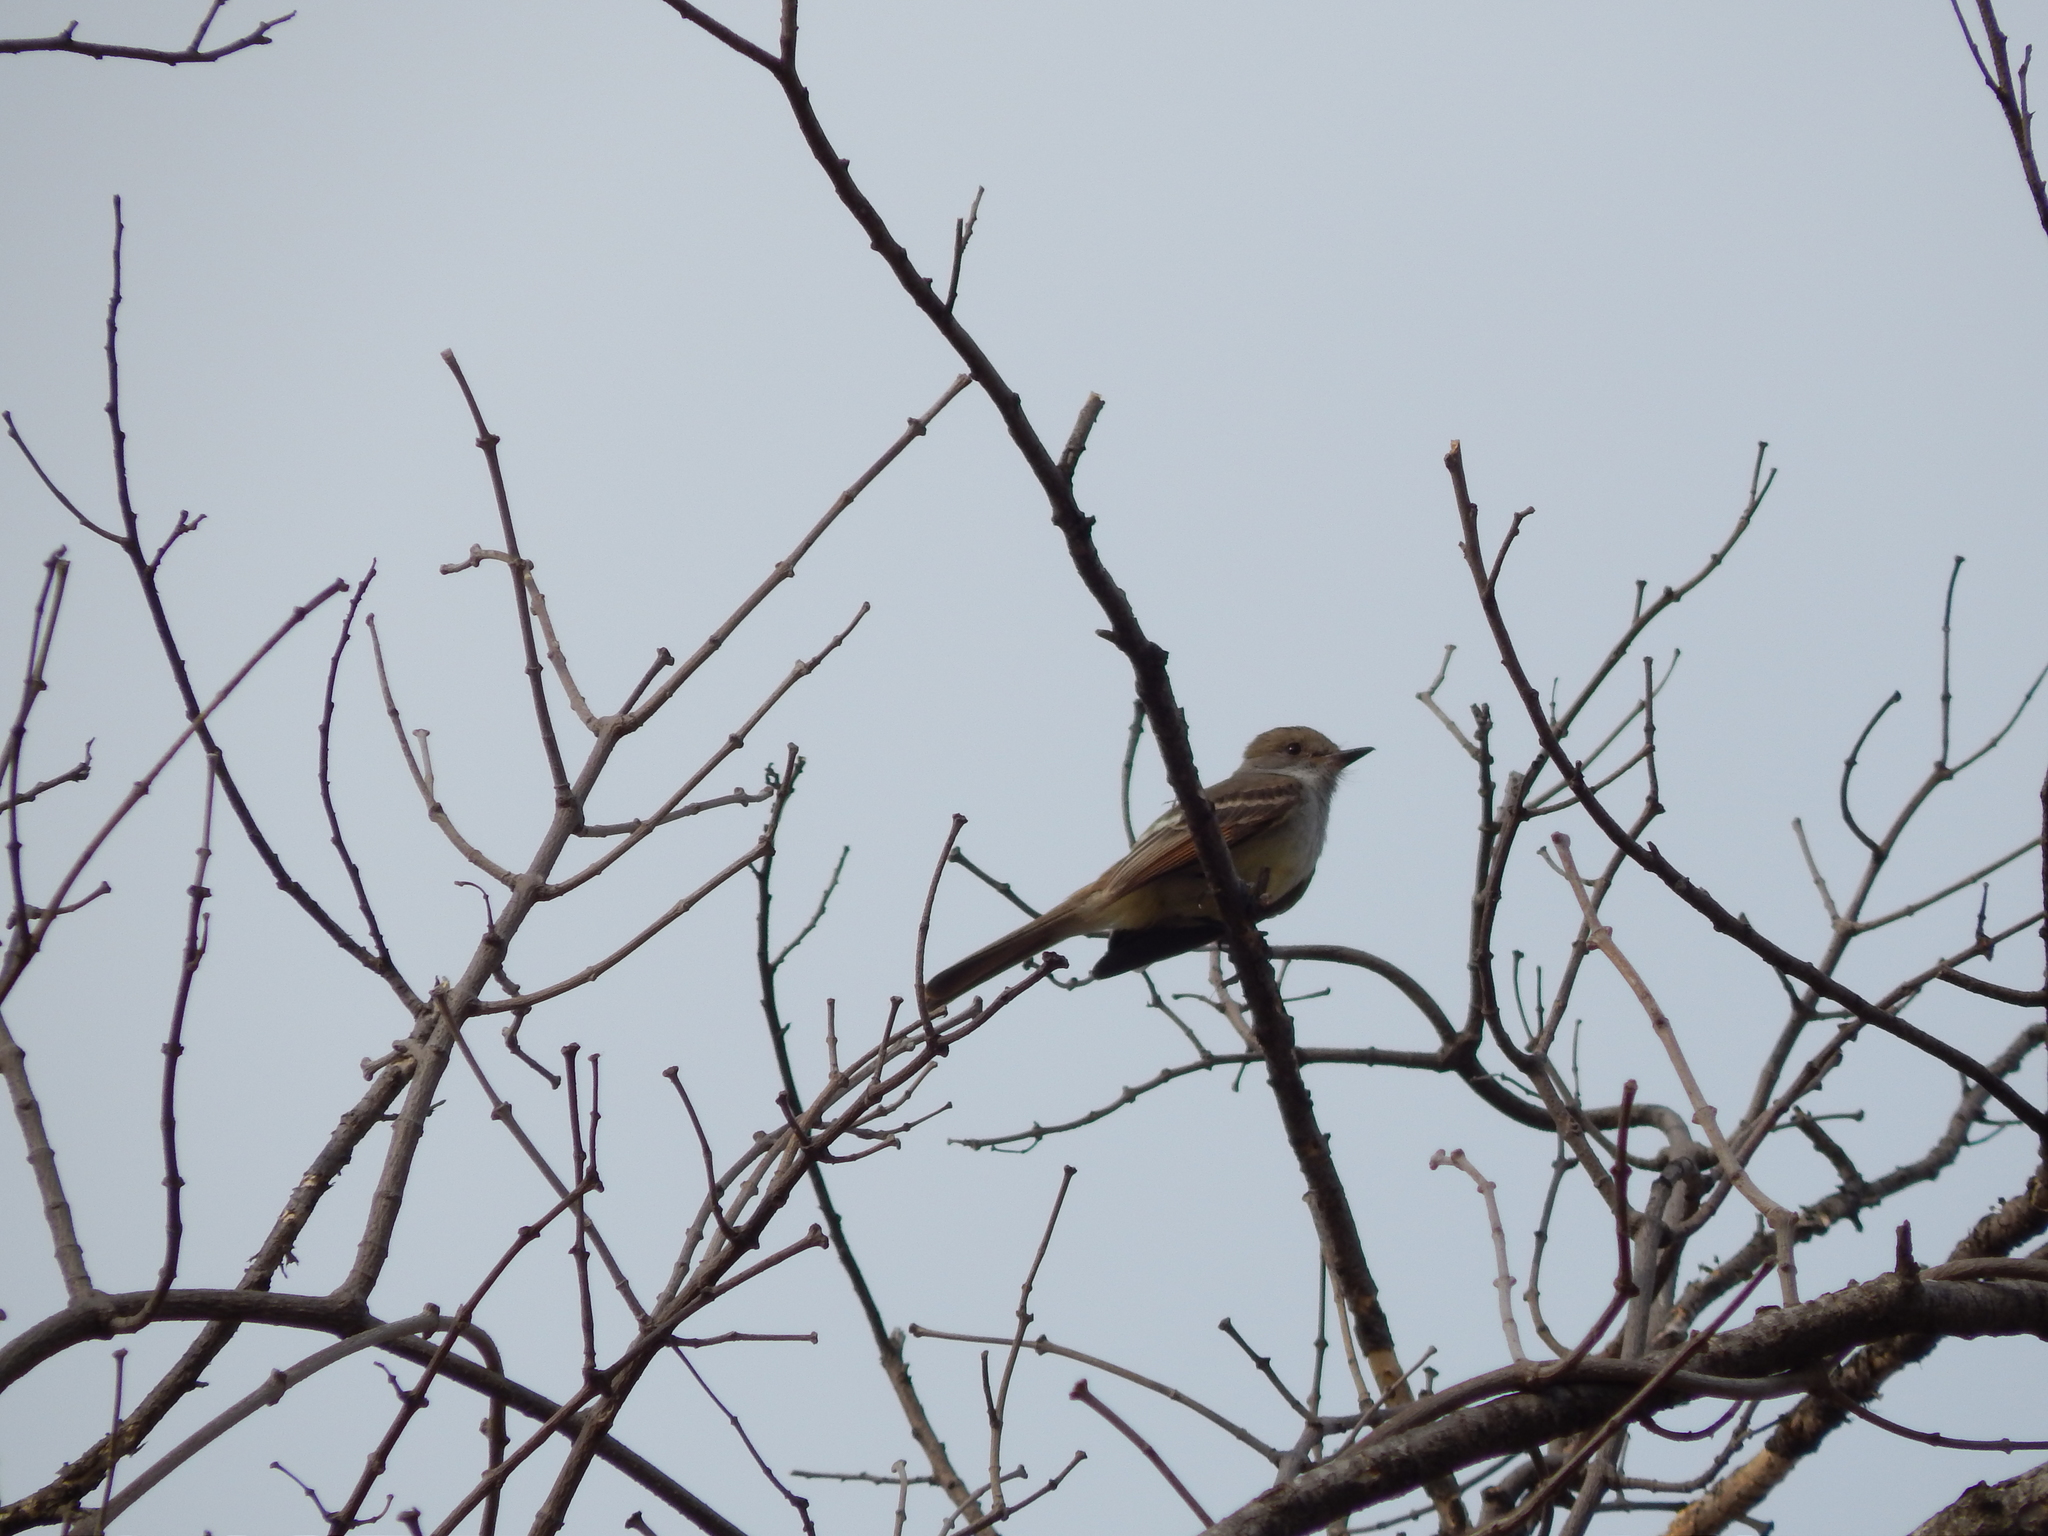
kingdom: Animalia
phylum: Chordata
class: Aves
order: Passeriformes
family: Tyrannidae
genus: Myiarchus
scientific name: Myiarchus cinerascens
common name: Ash-throated flycatcher
